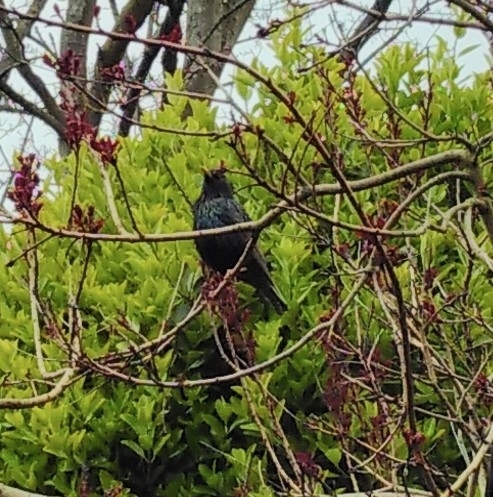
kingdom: Animalia
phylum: Chordata
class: Aves
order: Passeriformes
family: Sturnidae
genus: Sturnus
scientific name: Sturnus vulgaris
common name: Common starling
